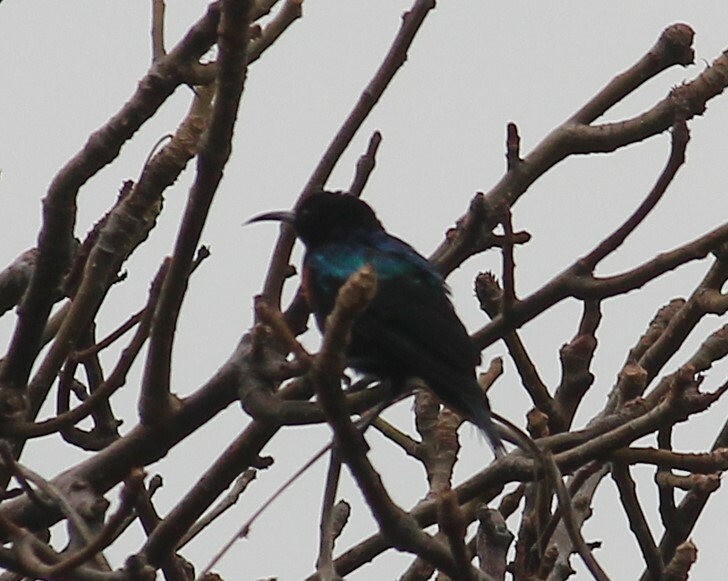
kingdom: Animalia
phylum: Chordata
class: Aves
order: Passeriformes
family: Nectariniidae
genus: Cinnyris
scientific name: Cinnyris coccinigastrus
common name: Splendid sunbird
